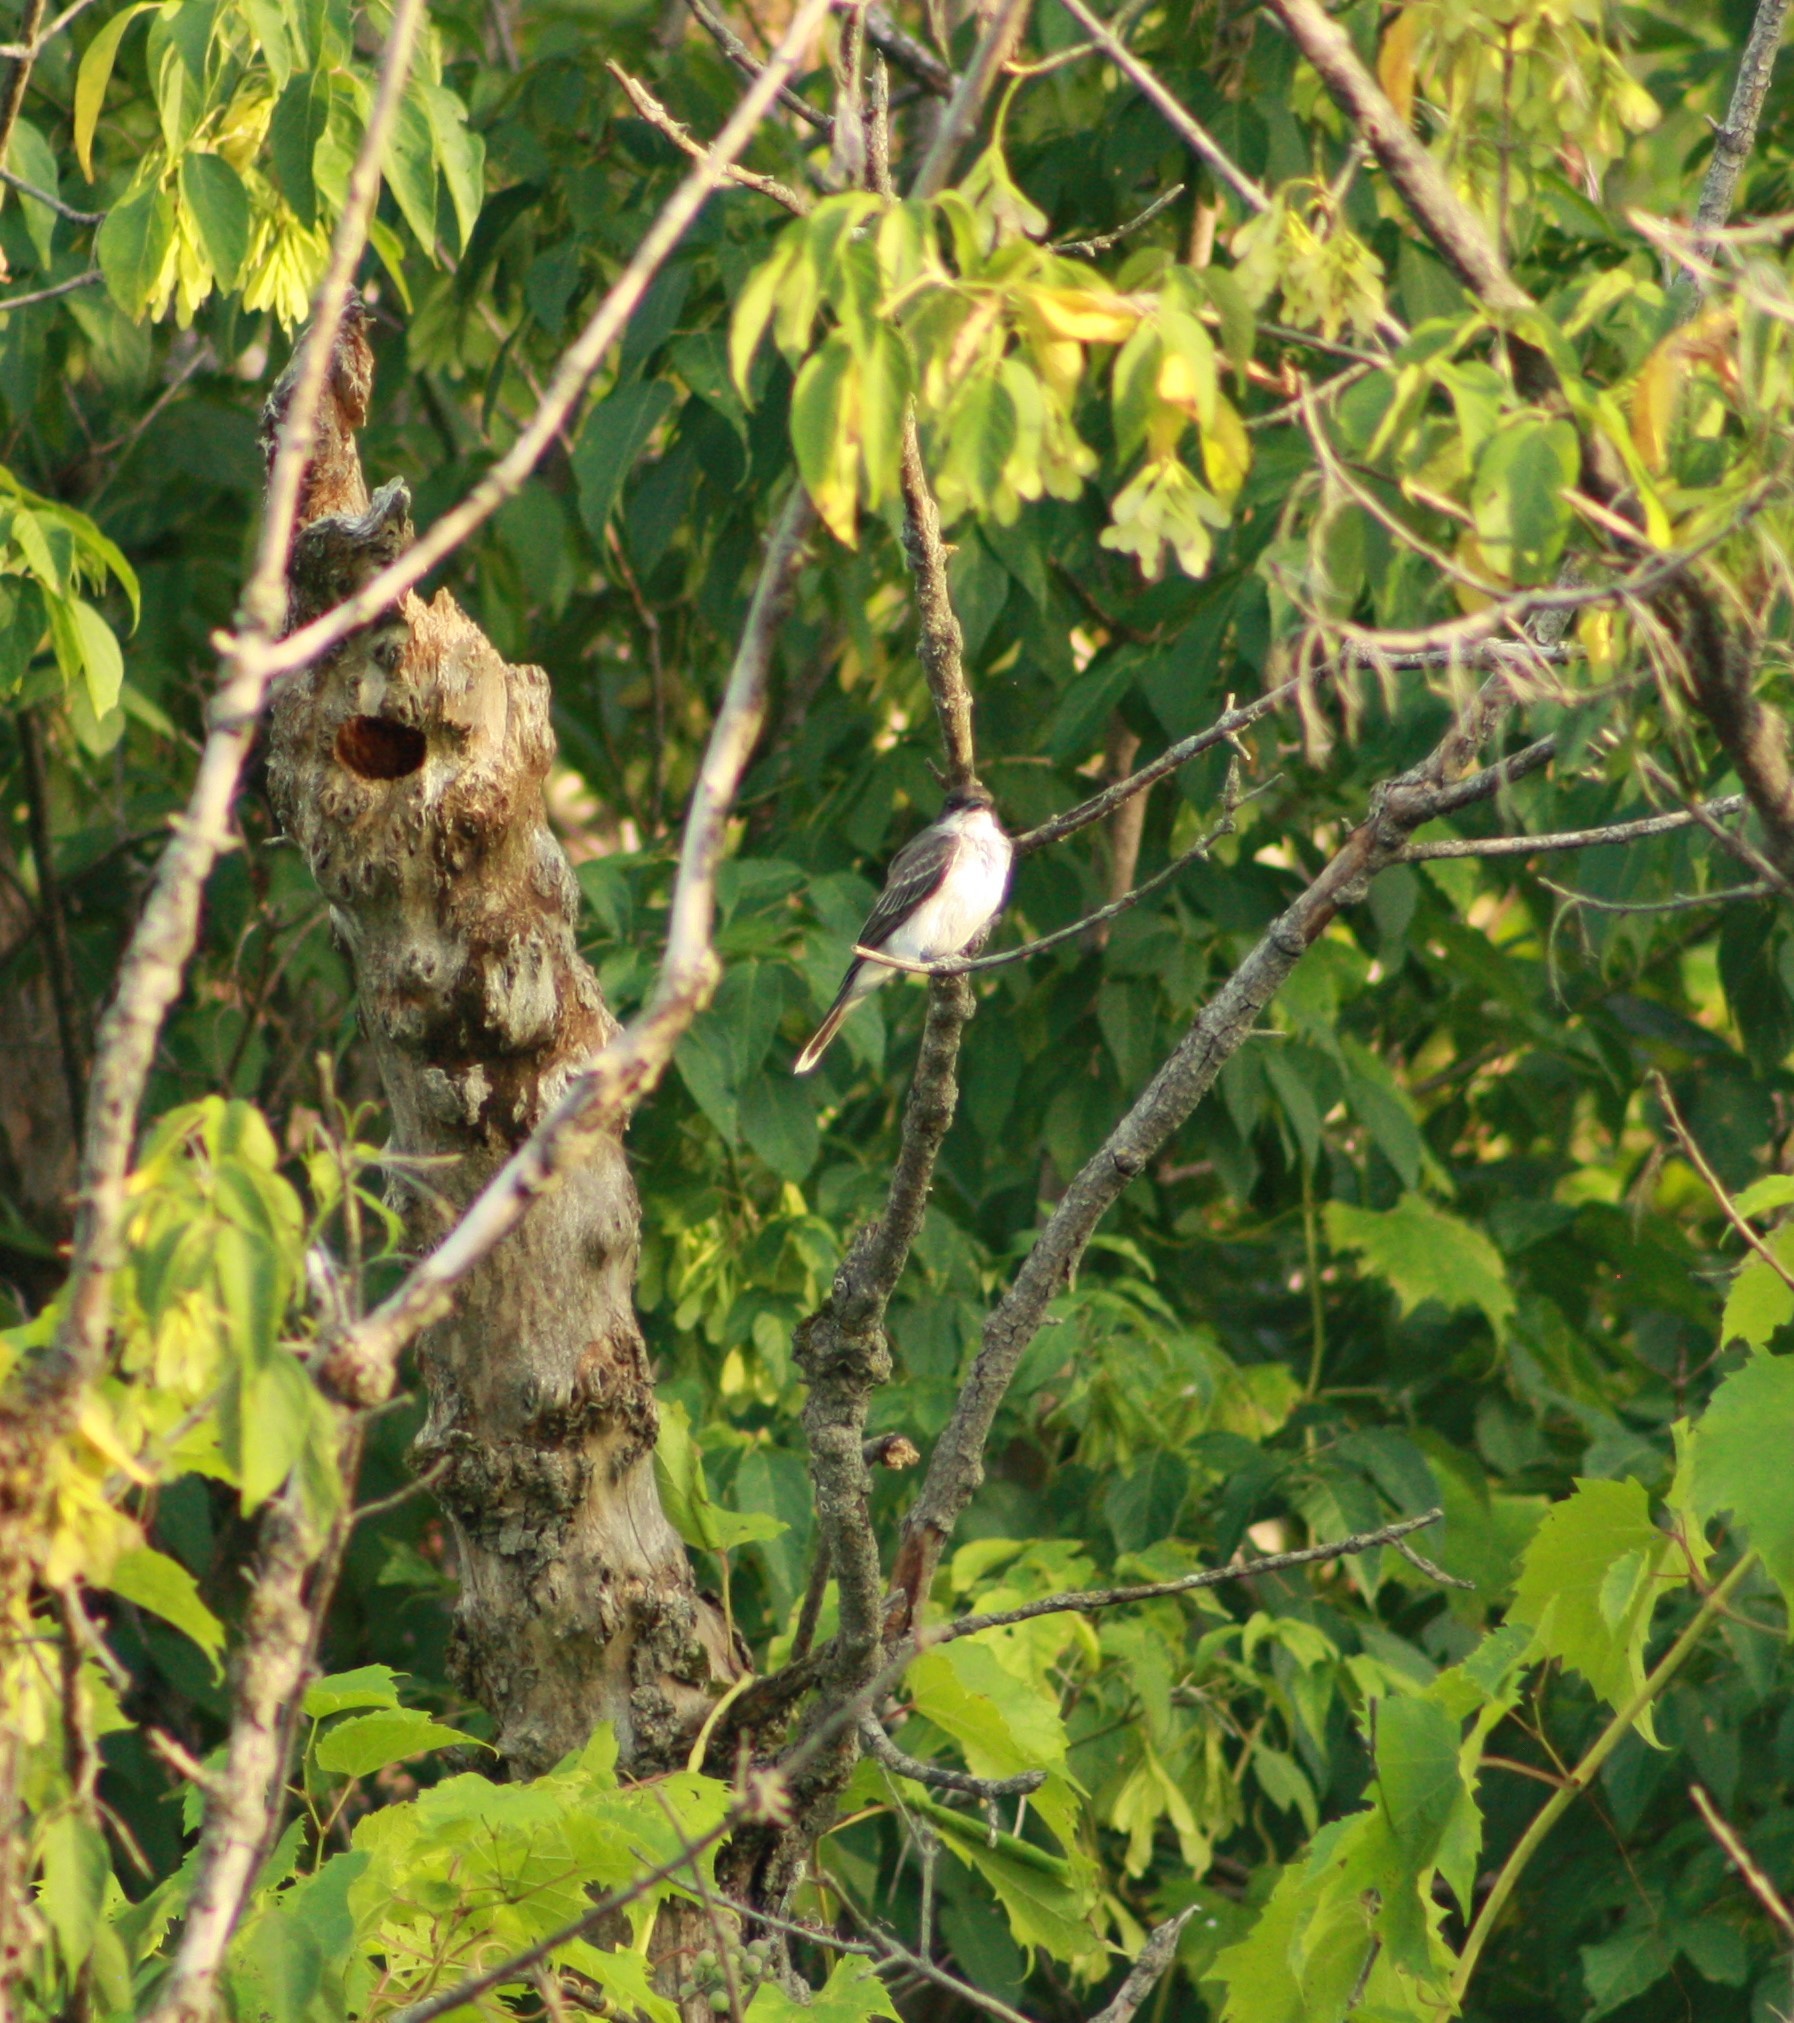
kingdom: Animalia
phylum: Chordata
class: Aves
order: Passeriformes
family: Tyrannidae
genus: Tyrannus
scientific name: Tyrannus tyrannus
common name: Eastern kingbird
